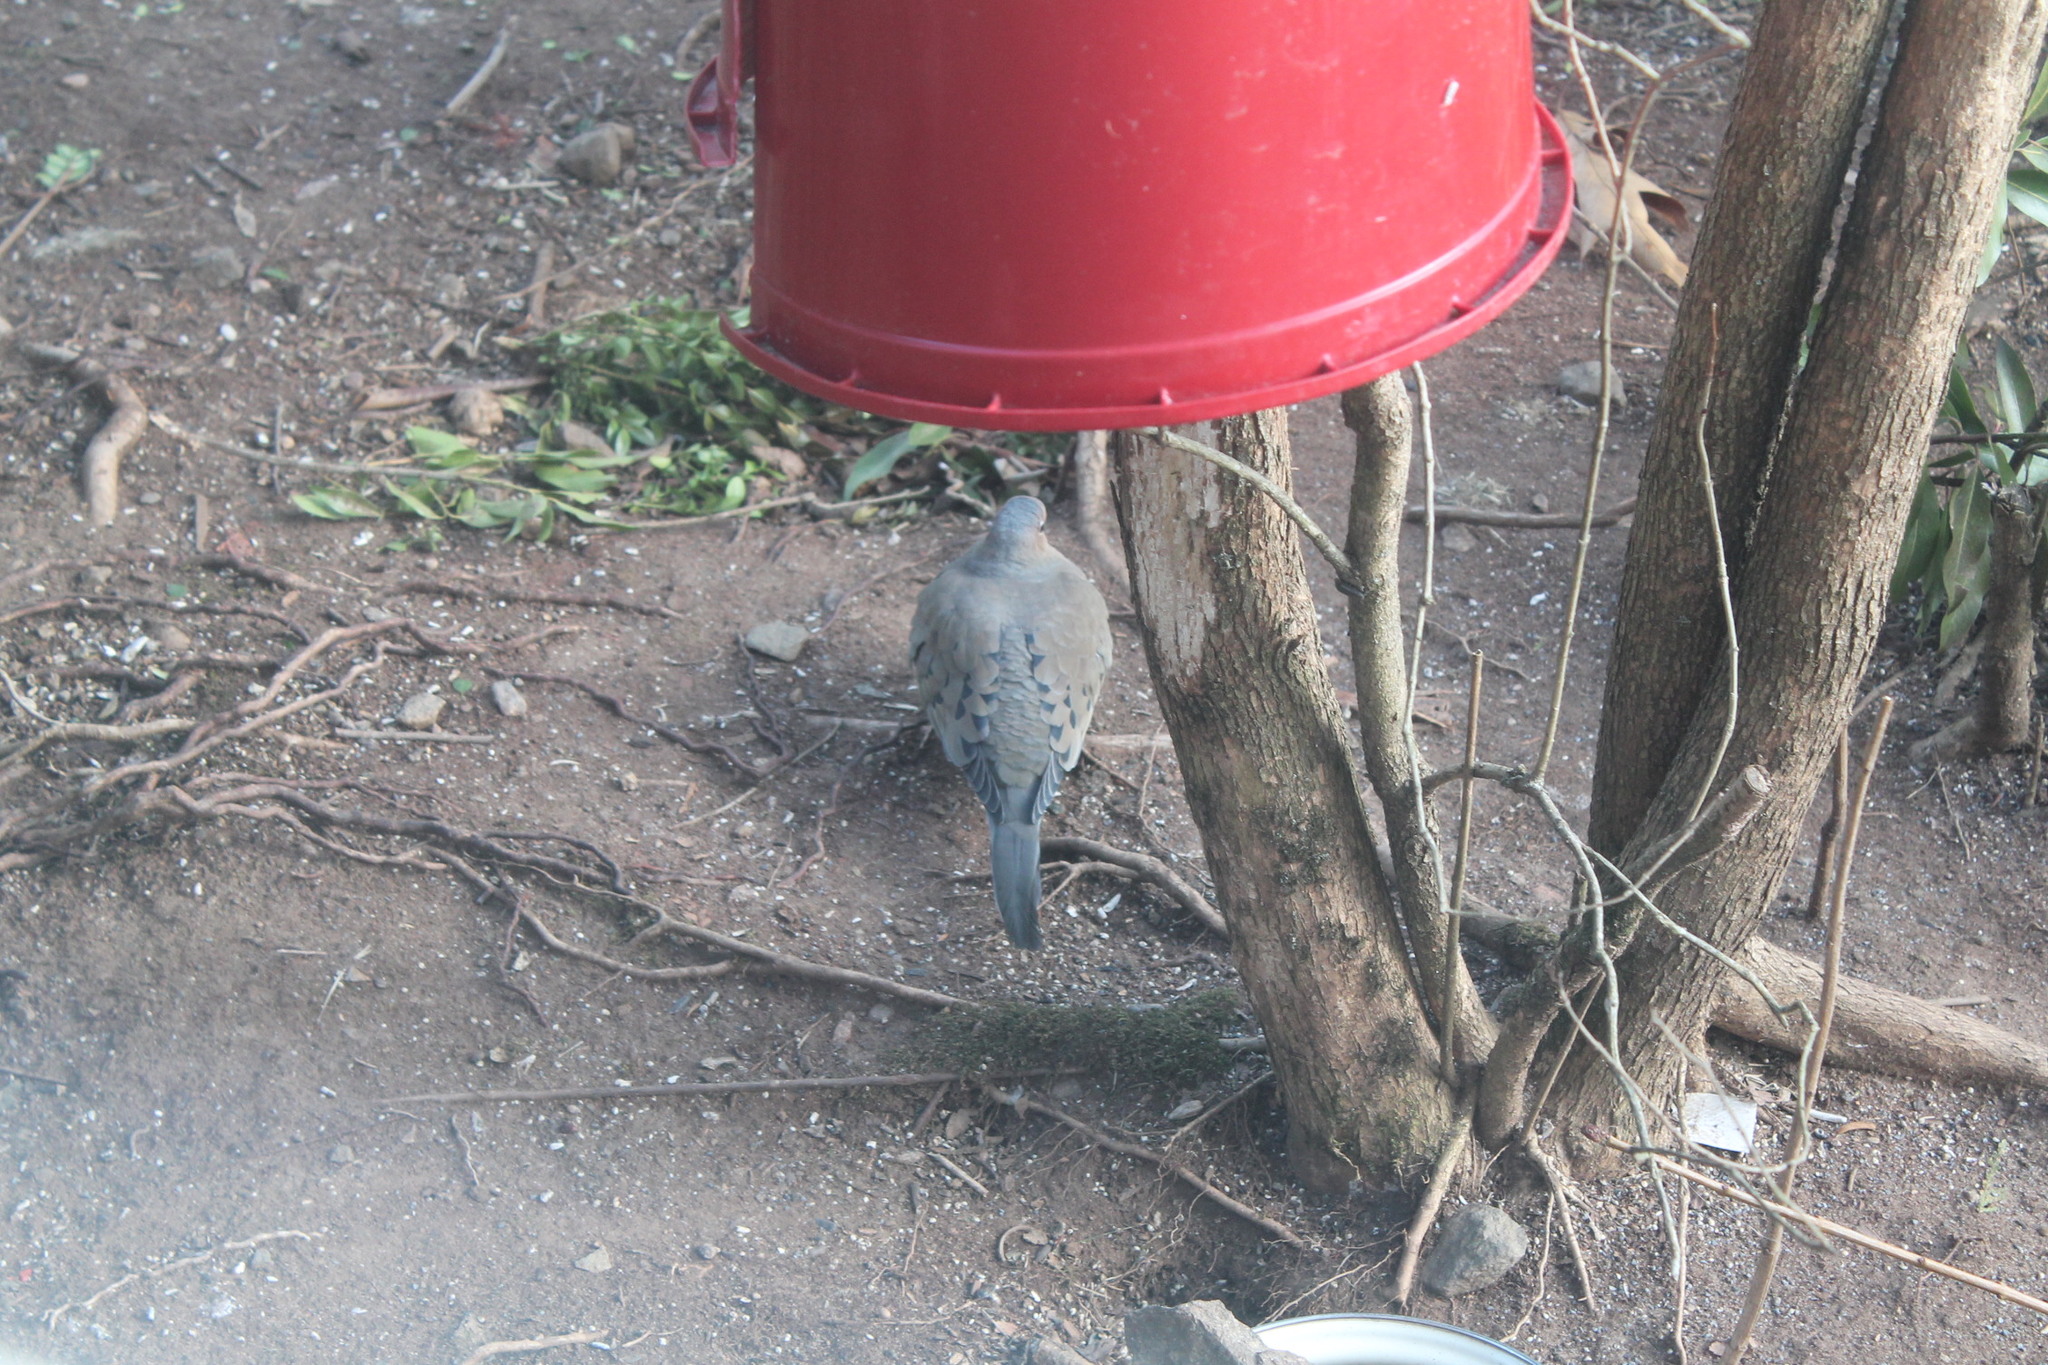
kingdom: Animalia
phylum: Chordata
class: Aves
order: Columbiformes
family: Columbidae
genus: Zenaida
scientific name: Zenaida macroura
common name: Mourning dove
